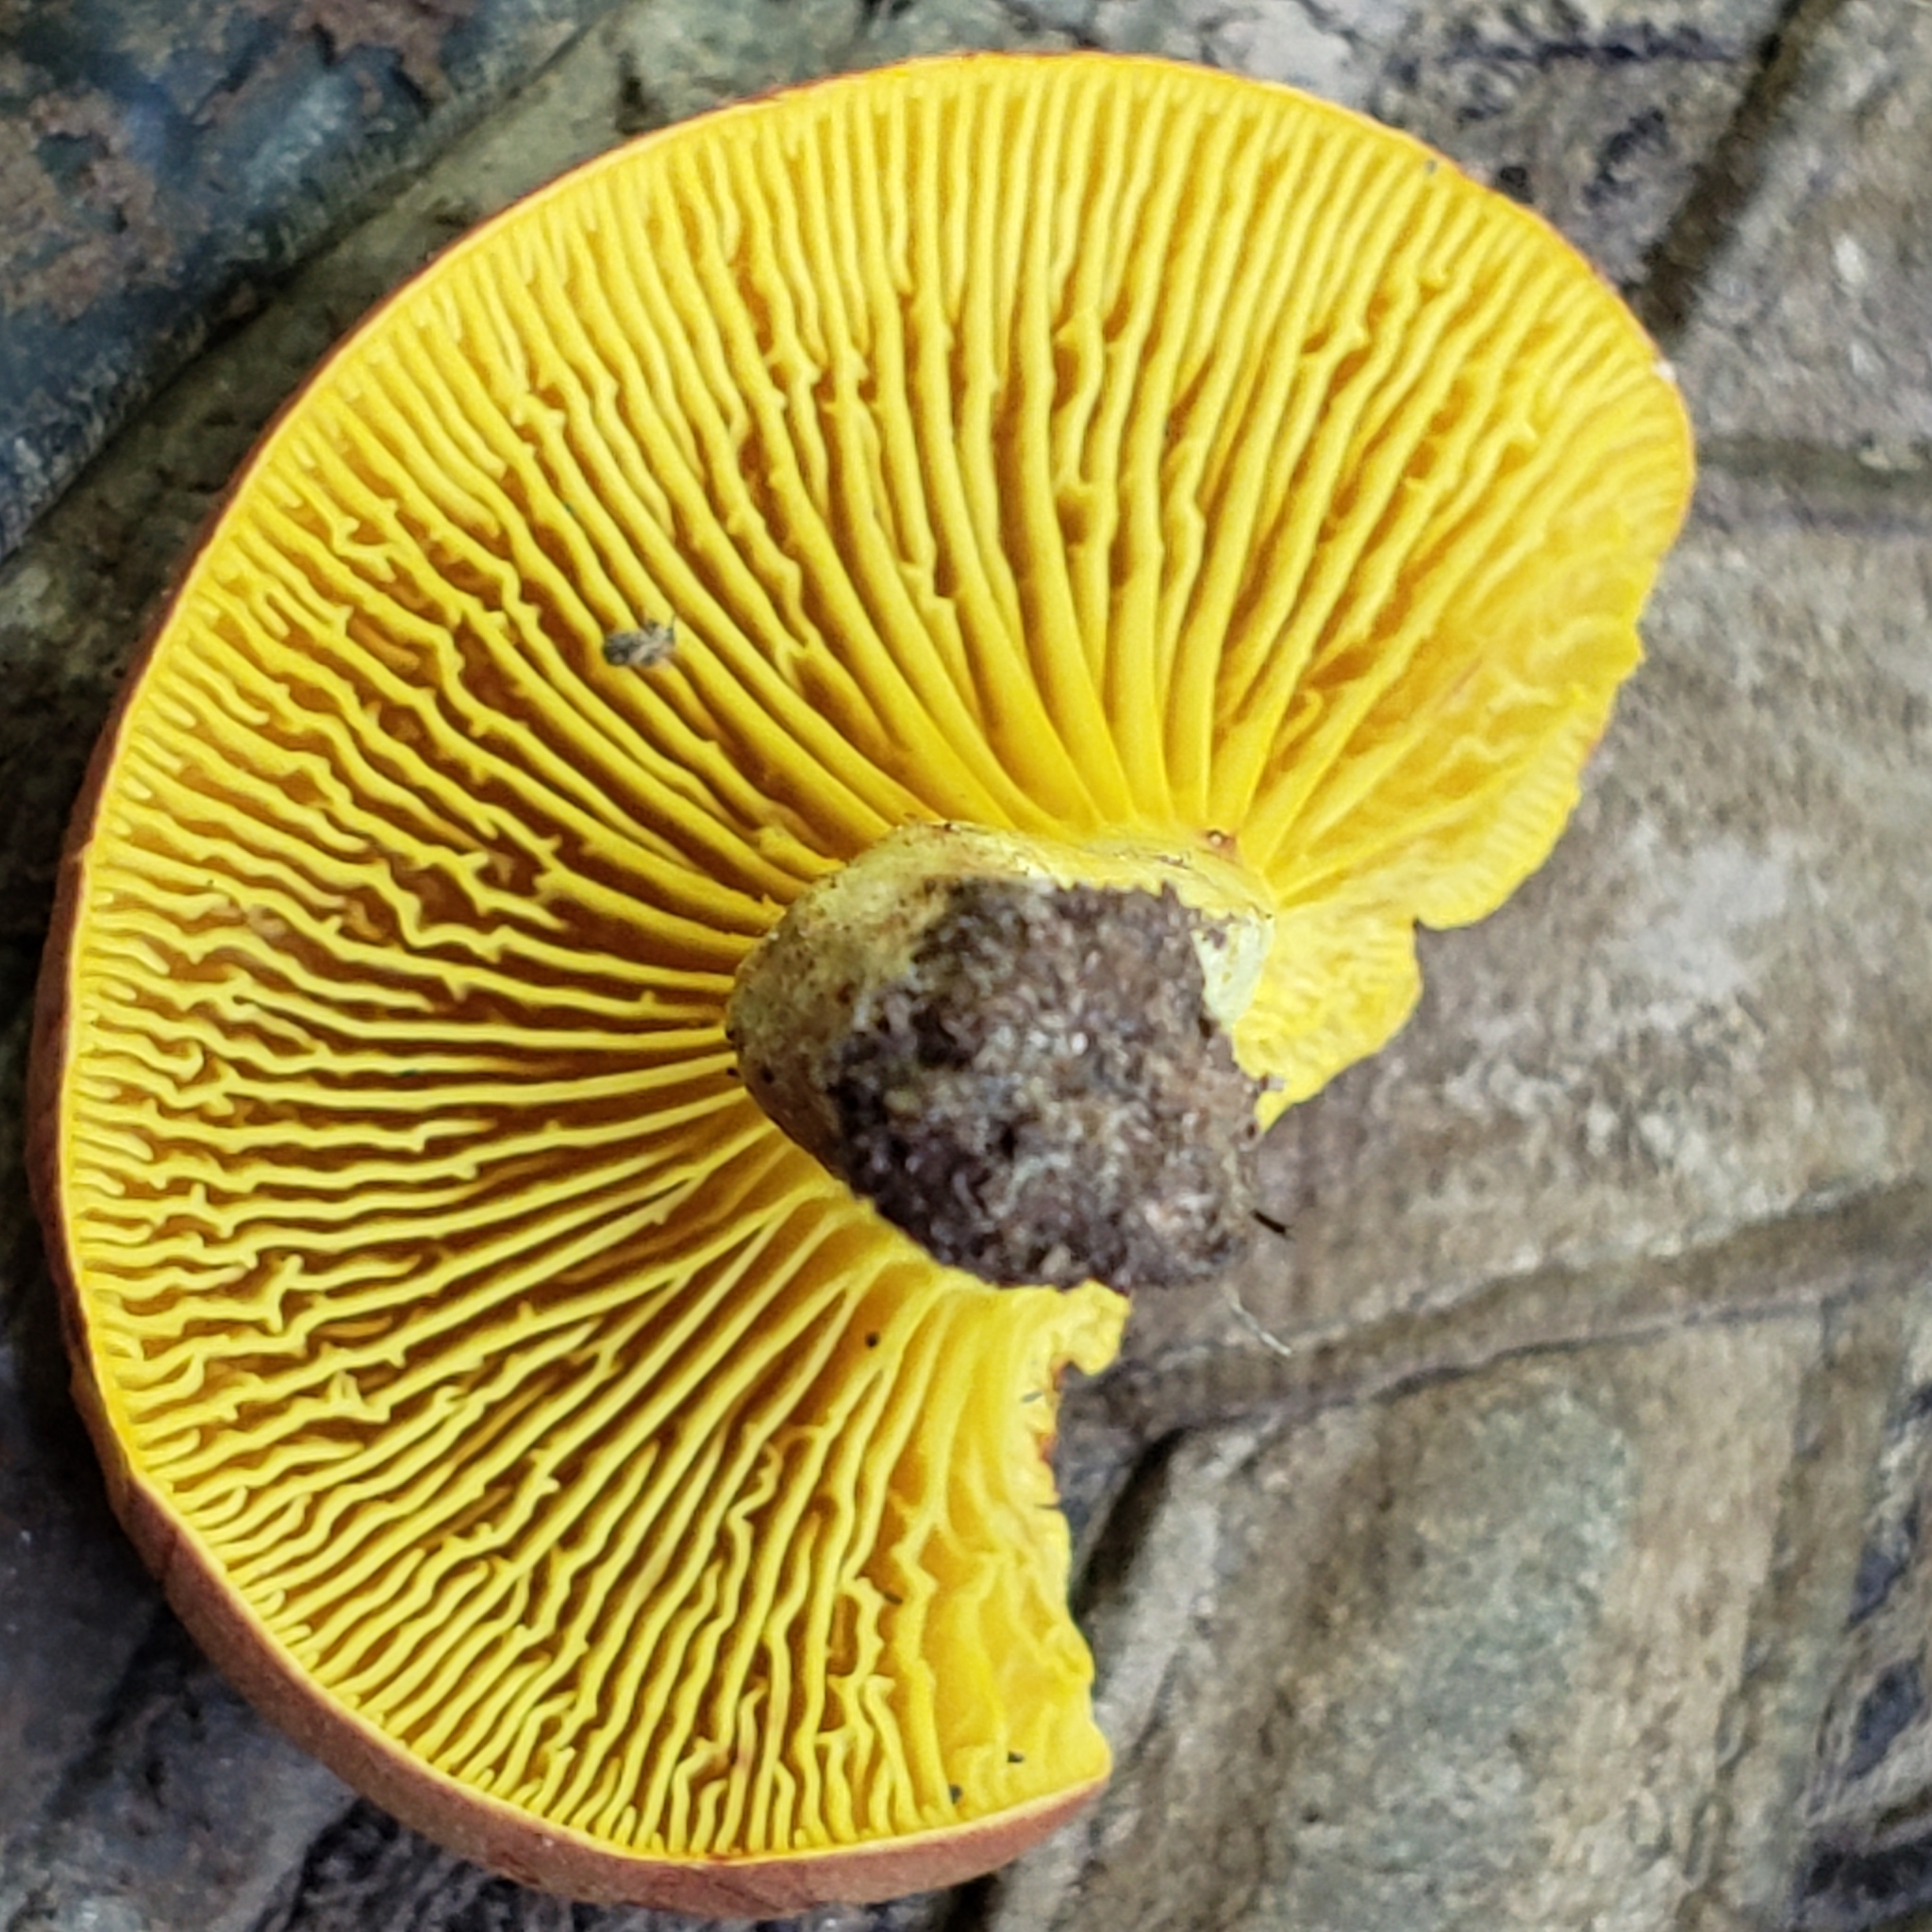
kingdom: Fungi
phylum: Basidiomycota
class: Agaricomycetes
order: Boletales
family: Boletaceae
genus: Phylloporus
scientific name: Phylloporus rhodoxanthus
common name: Golden gilled bolete
